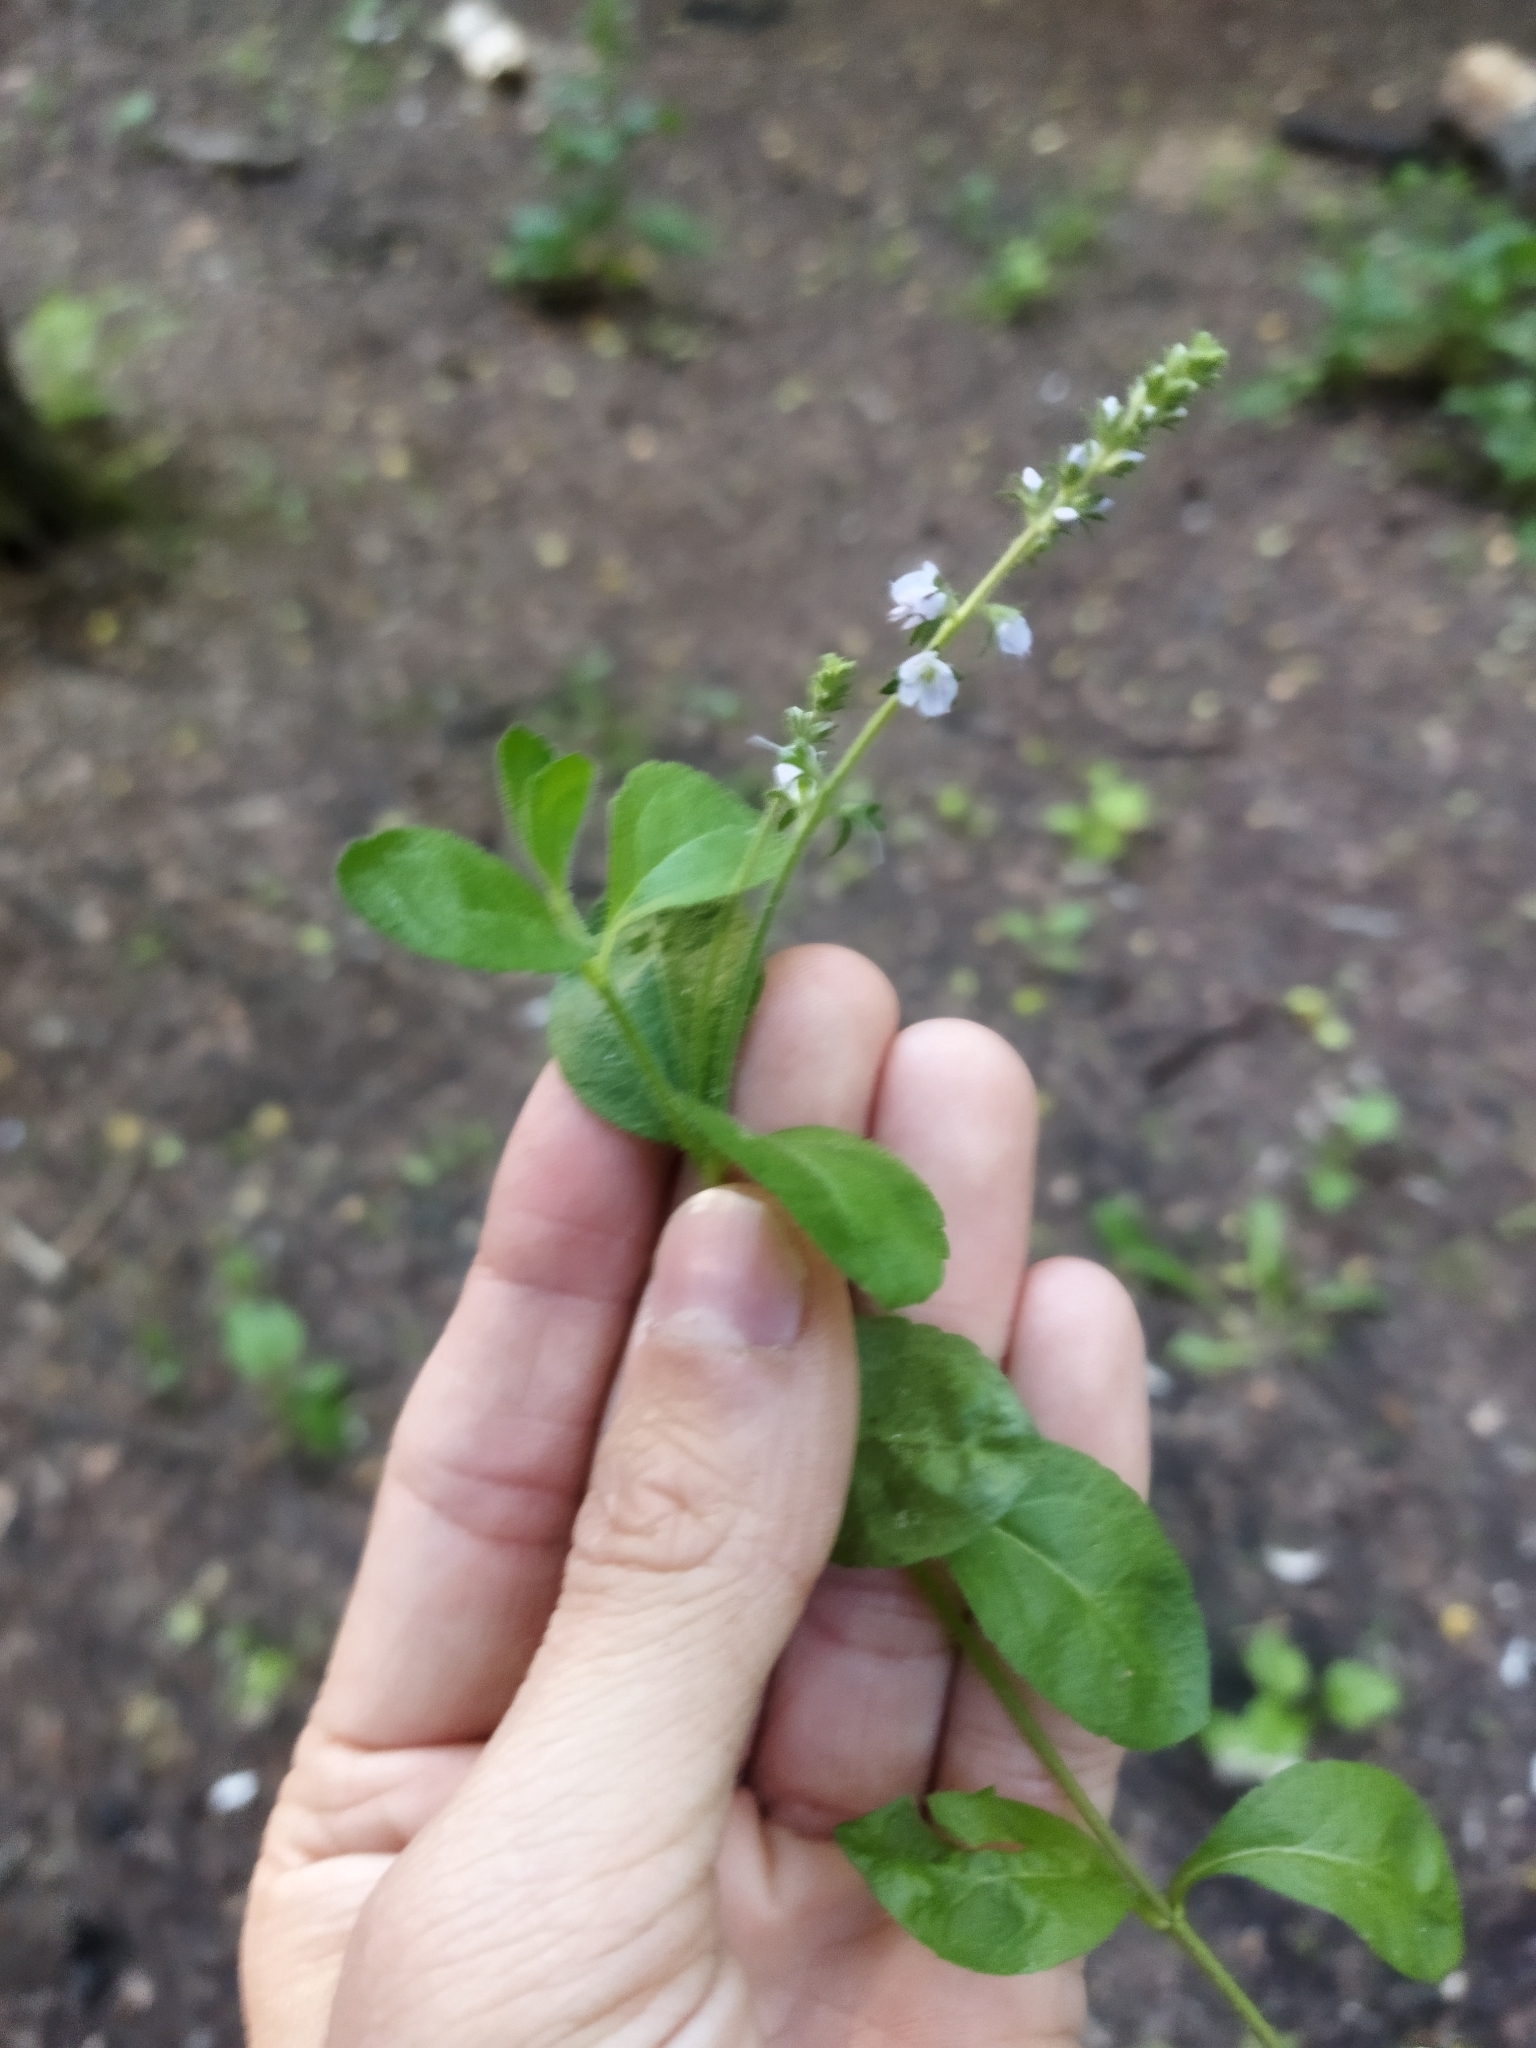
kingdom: Plantae
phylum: Tracheophyta
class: Magnoliopsida
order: Lamiales
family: Plantaginaceae
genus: Veronica
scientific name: Veronica officinalis
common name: Common speedwell
